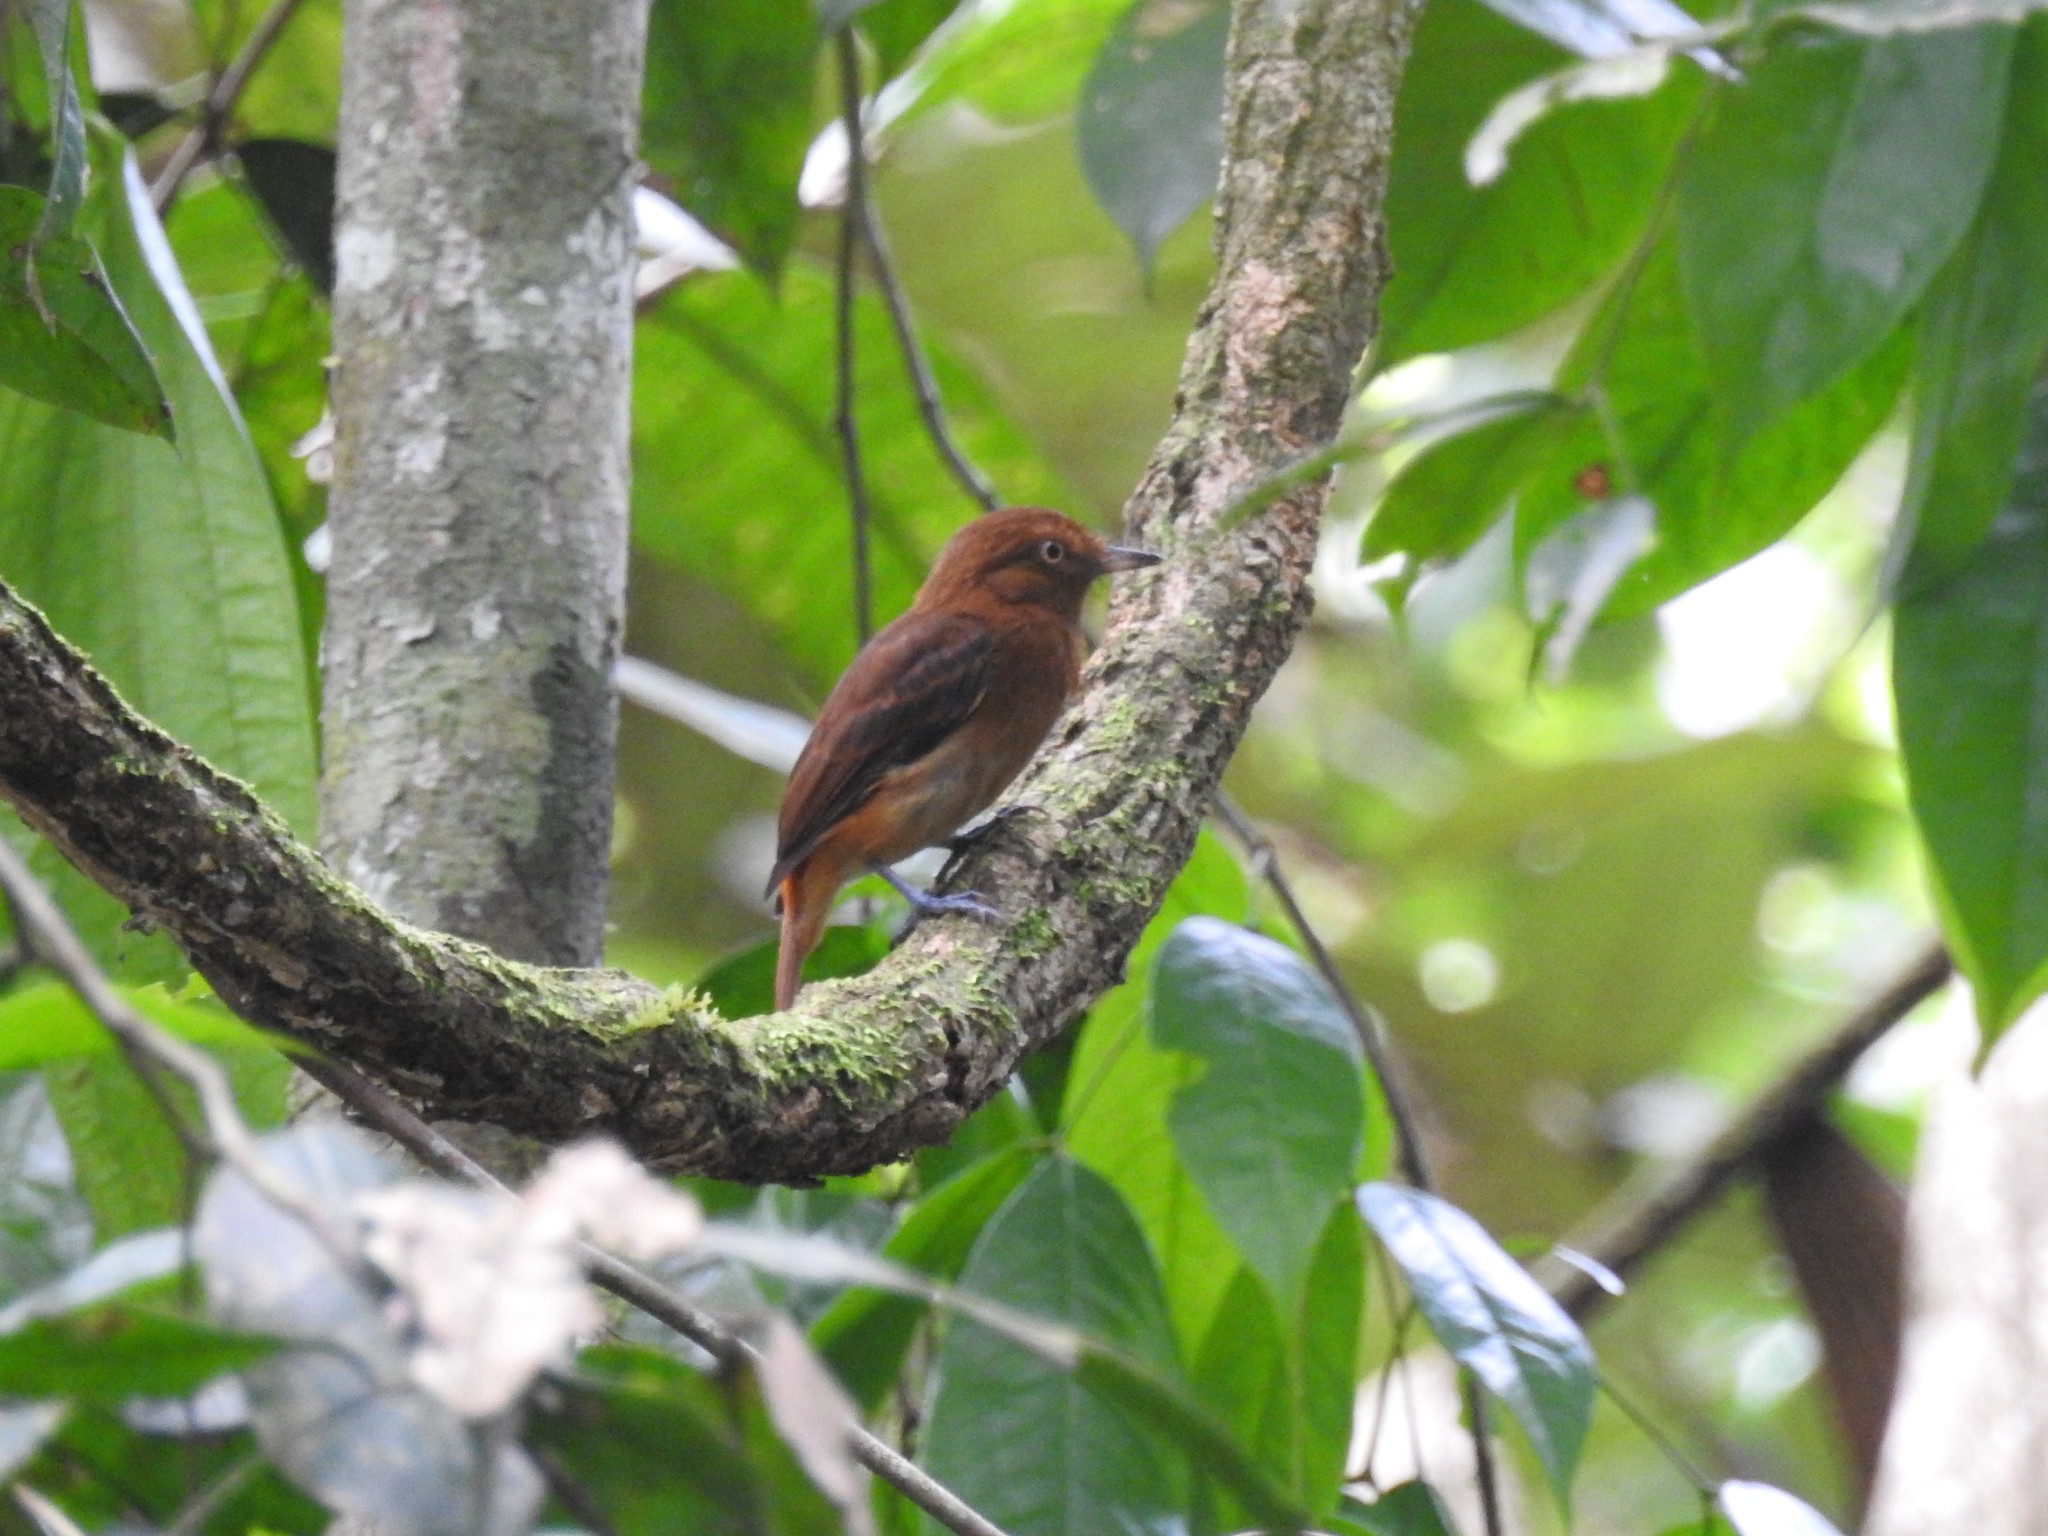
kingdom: Animalia
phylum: Chordata
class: Aves
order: Passeriformes
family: Tyrannidae
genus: Attila
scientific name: Attila spadiceus
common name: Bright-rumped attila
